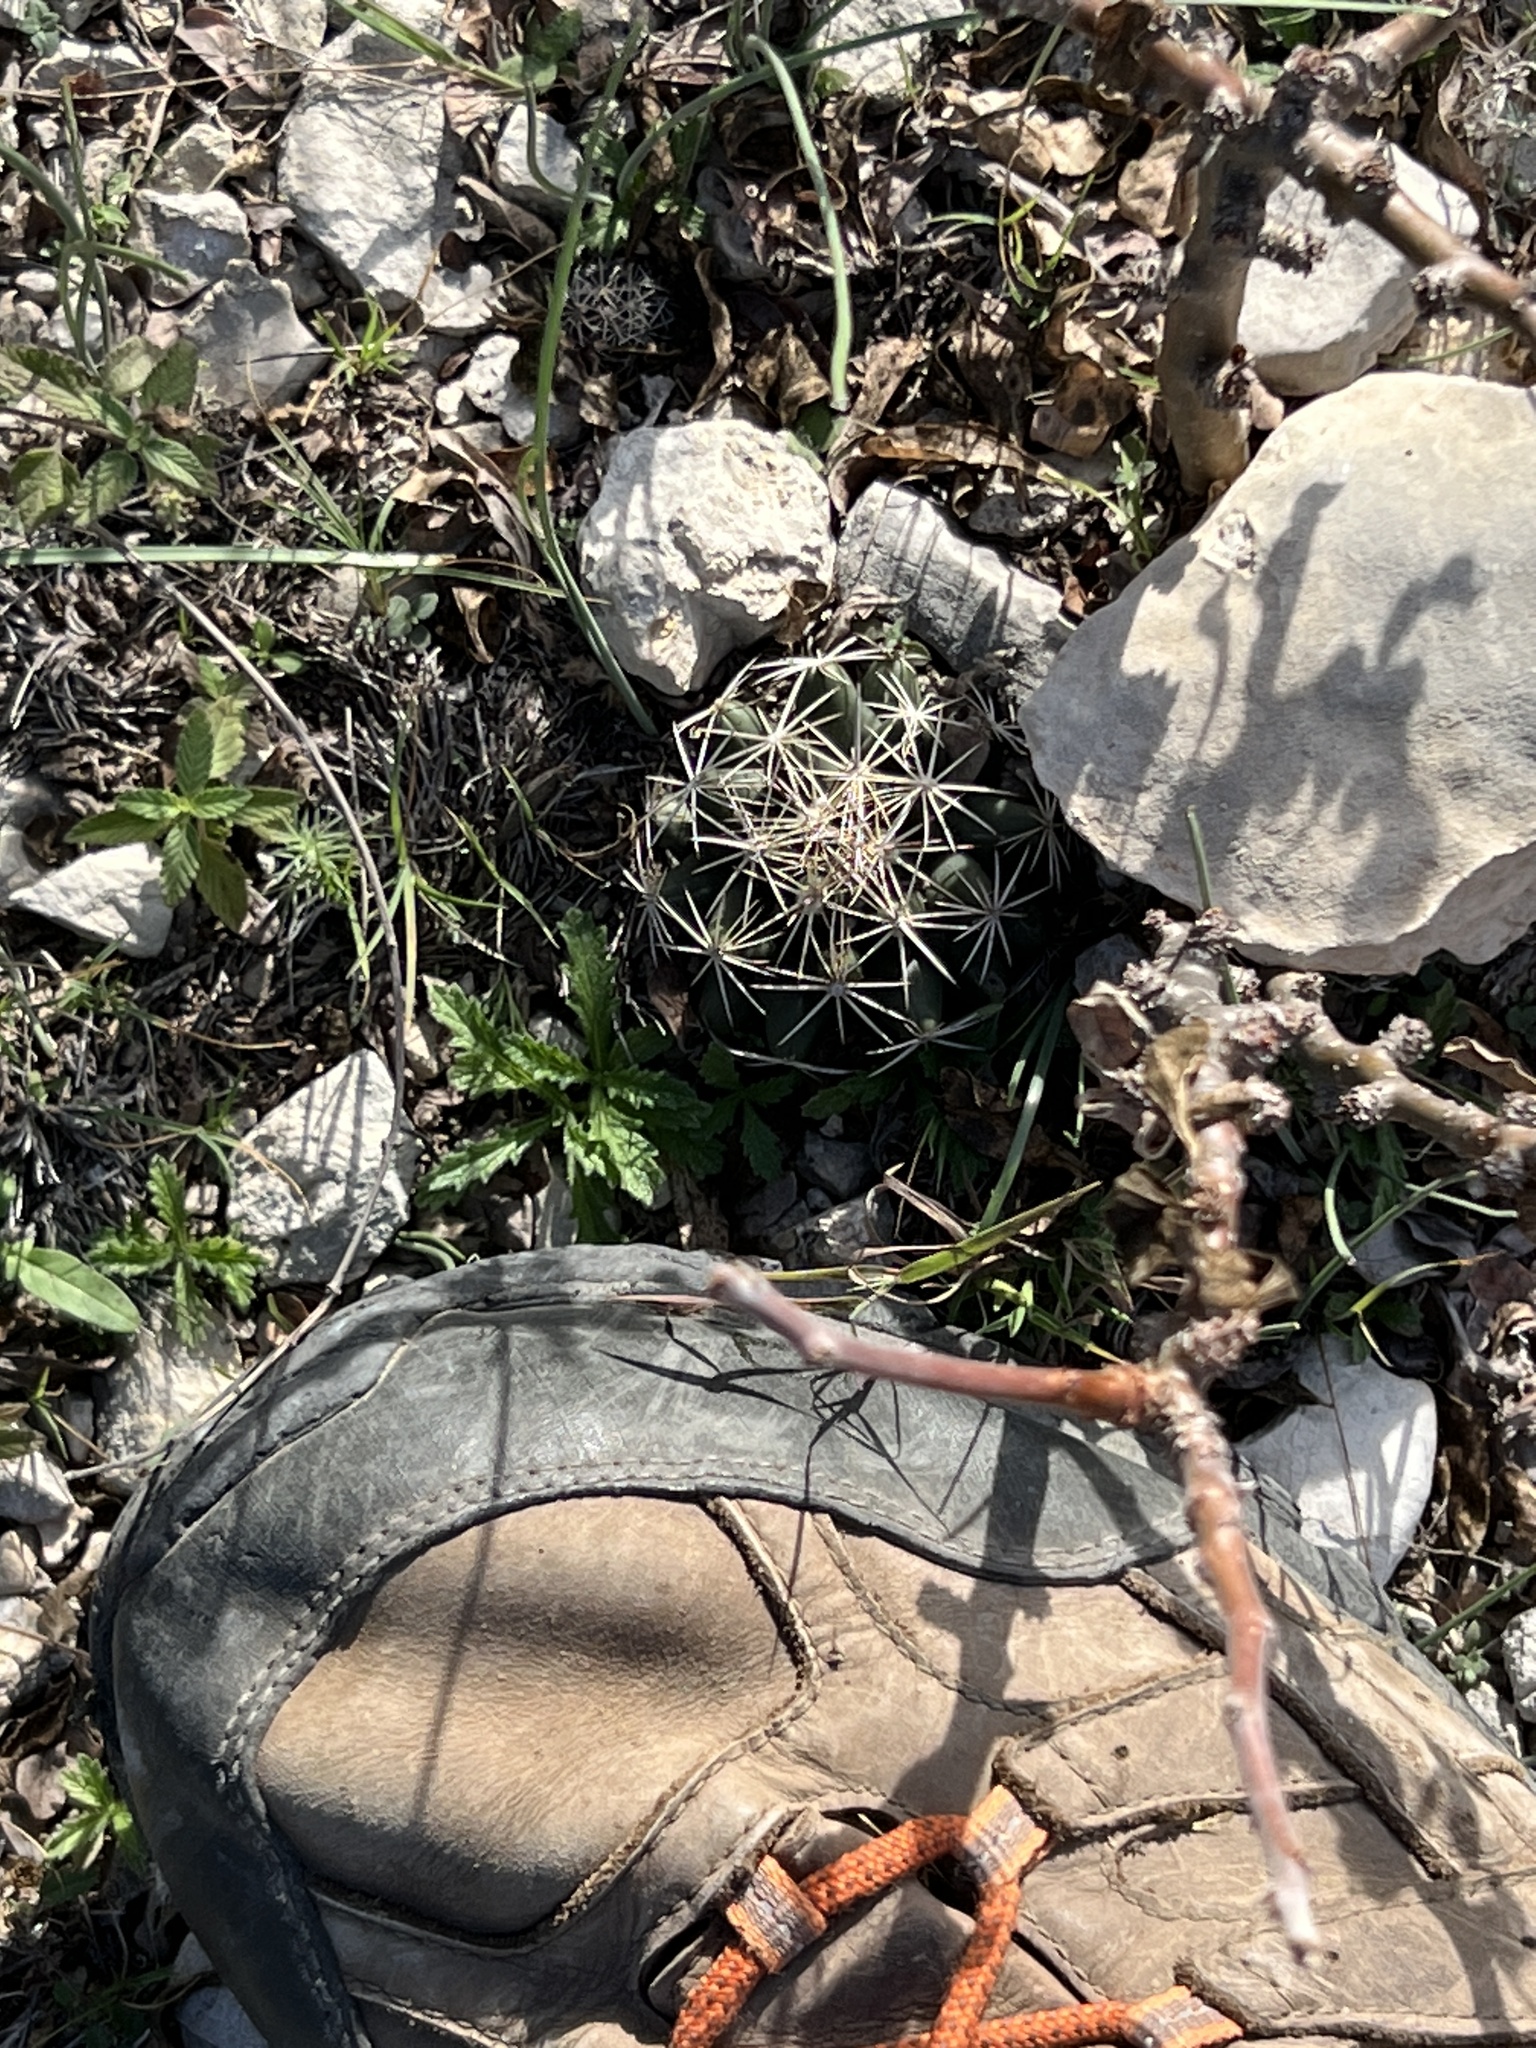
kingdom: Plantae
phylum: Tracheophyta
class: Magnoliopsida
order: Caryophyllales
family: Cactaceae
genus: Coryphantha
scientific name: Coryphantha sulcata
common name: Finger cactus
